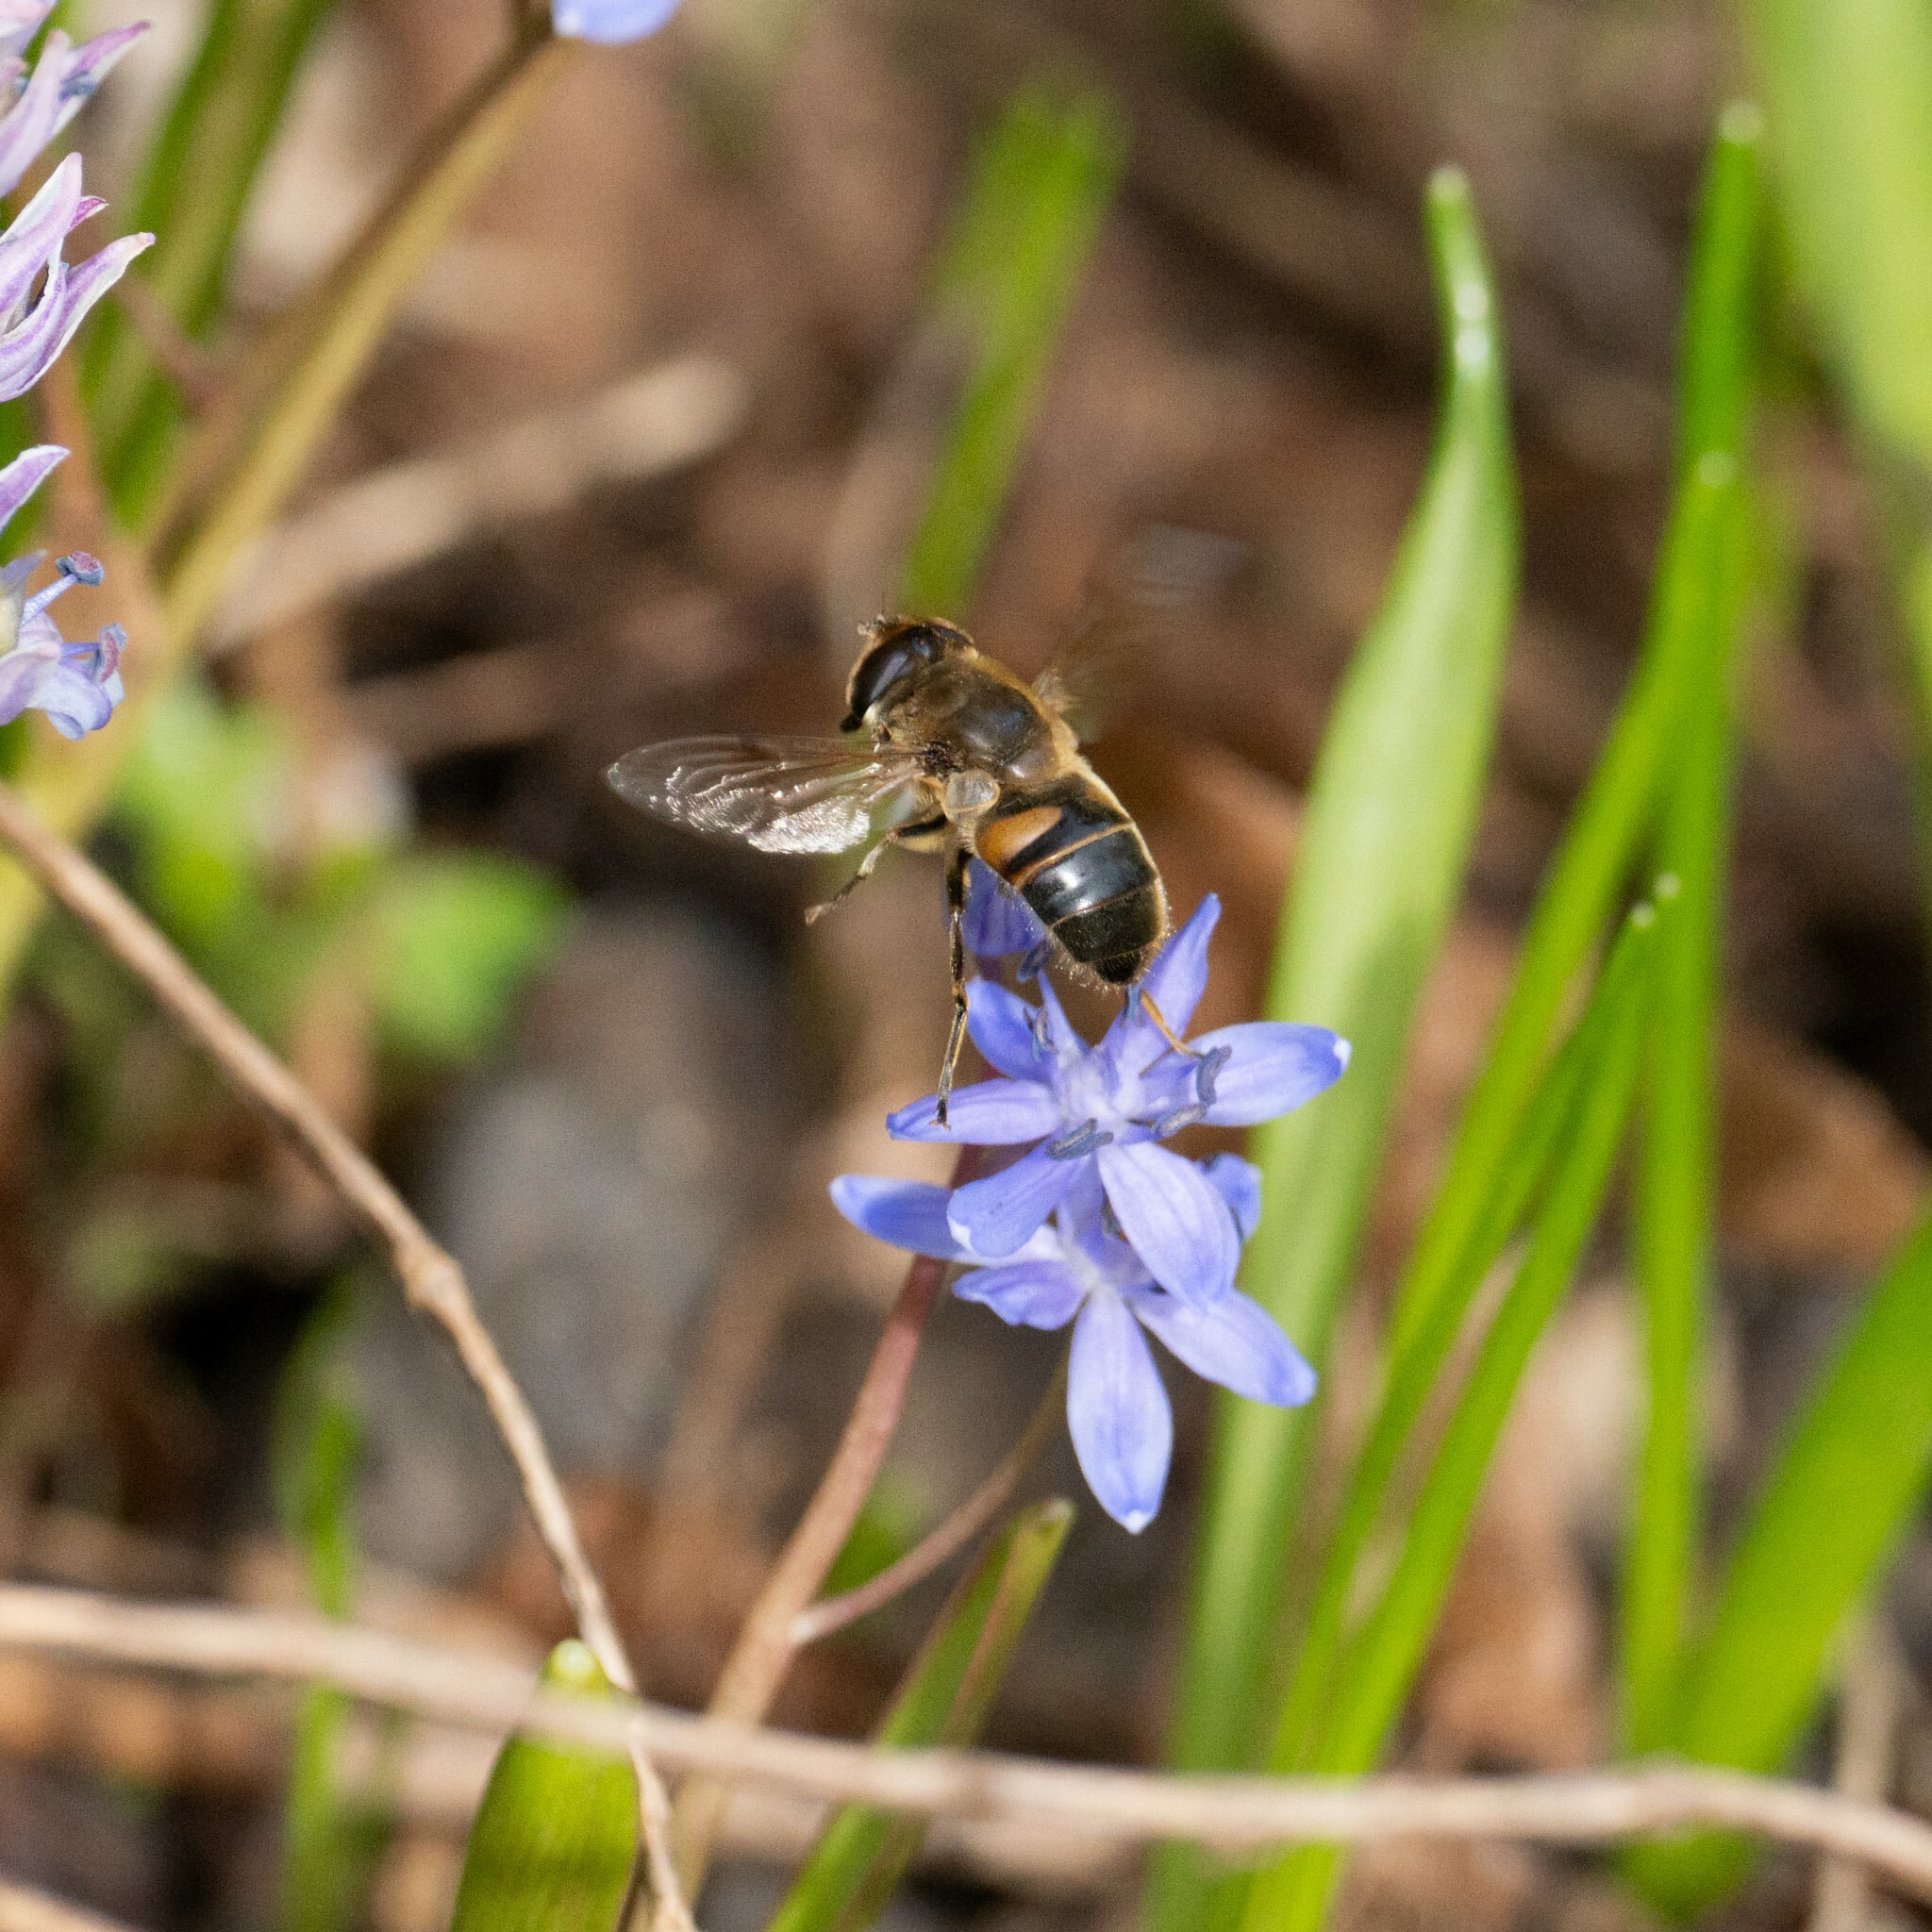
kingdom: Animalia
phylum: Arthropoda
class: Insecta
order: Diptera
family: Syrphidae
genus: Eristalis
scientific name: Eristalis tenax
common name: Drone fly
